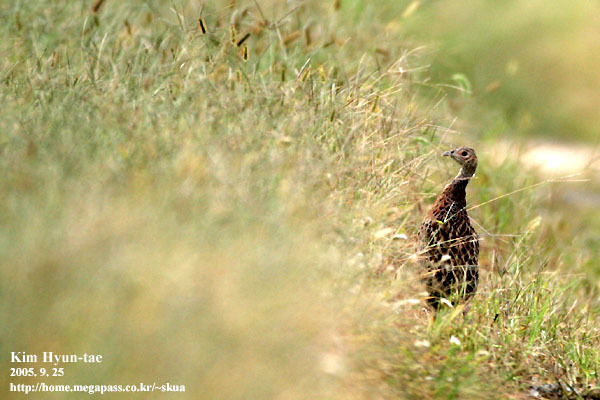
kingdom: Animalia
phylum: Chordata
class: Aves
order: Galliformes
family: Phasianidae
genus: Phasianus
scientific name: Phasianus colchicus
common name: Common pheasant
